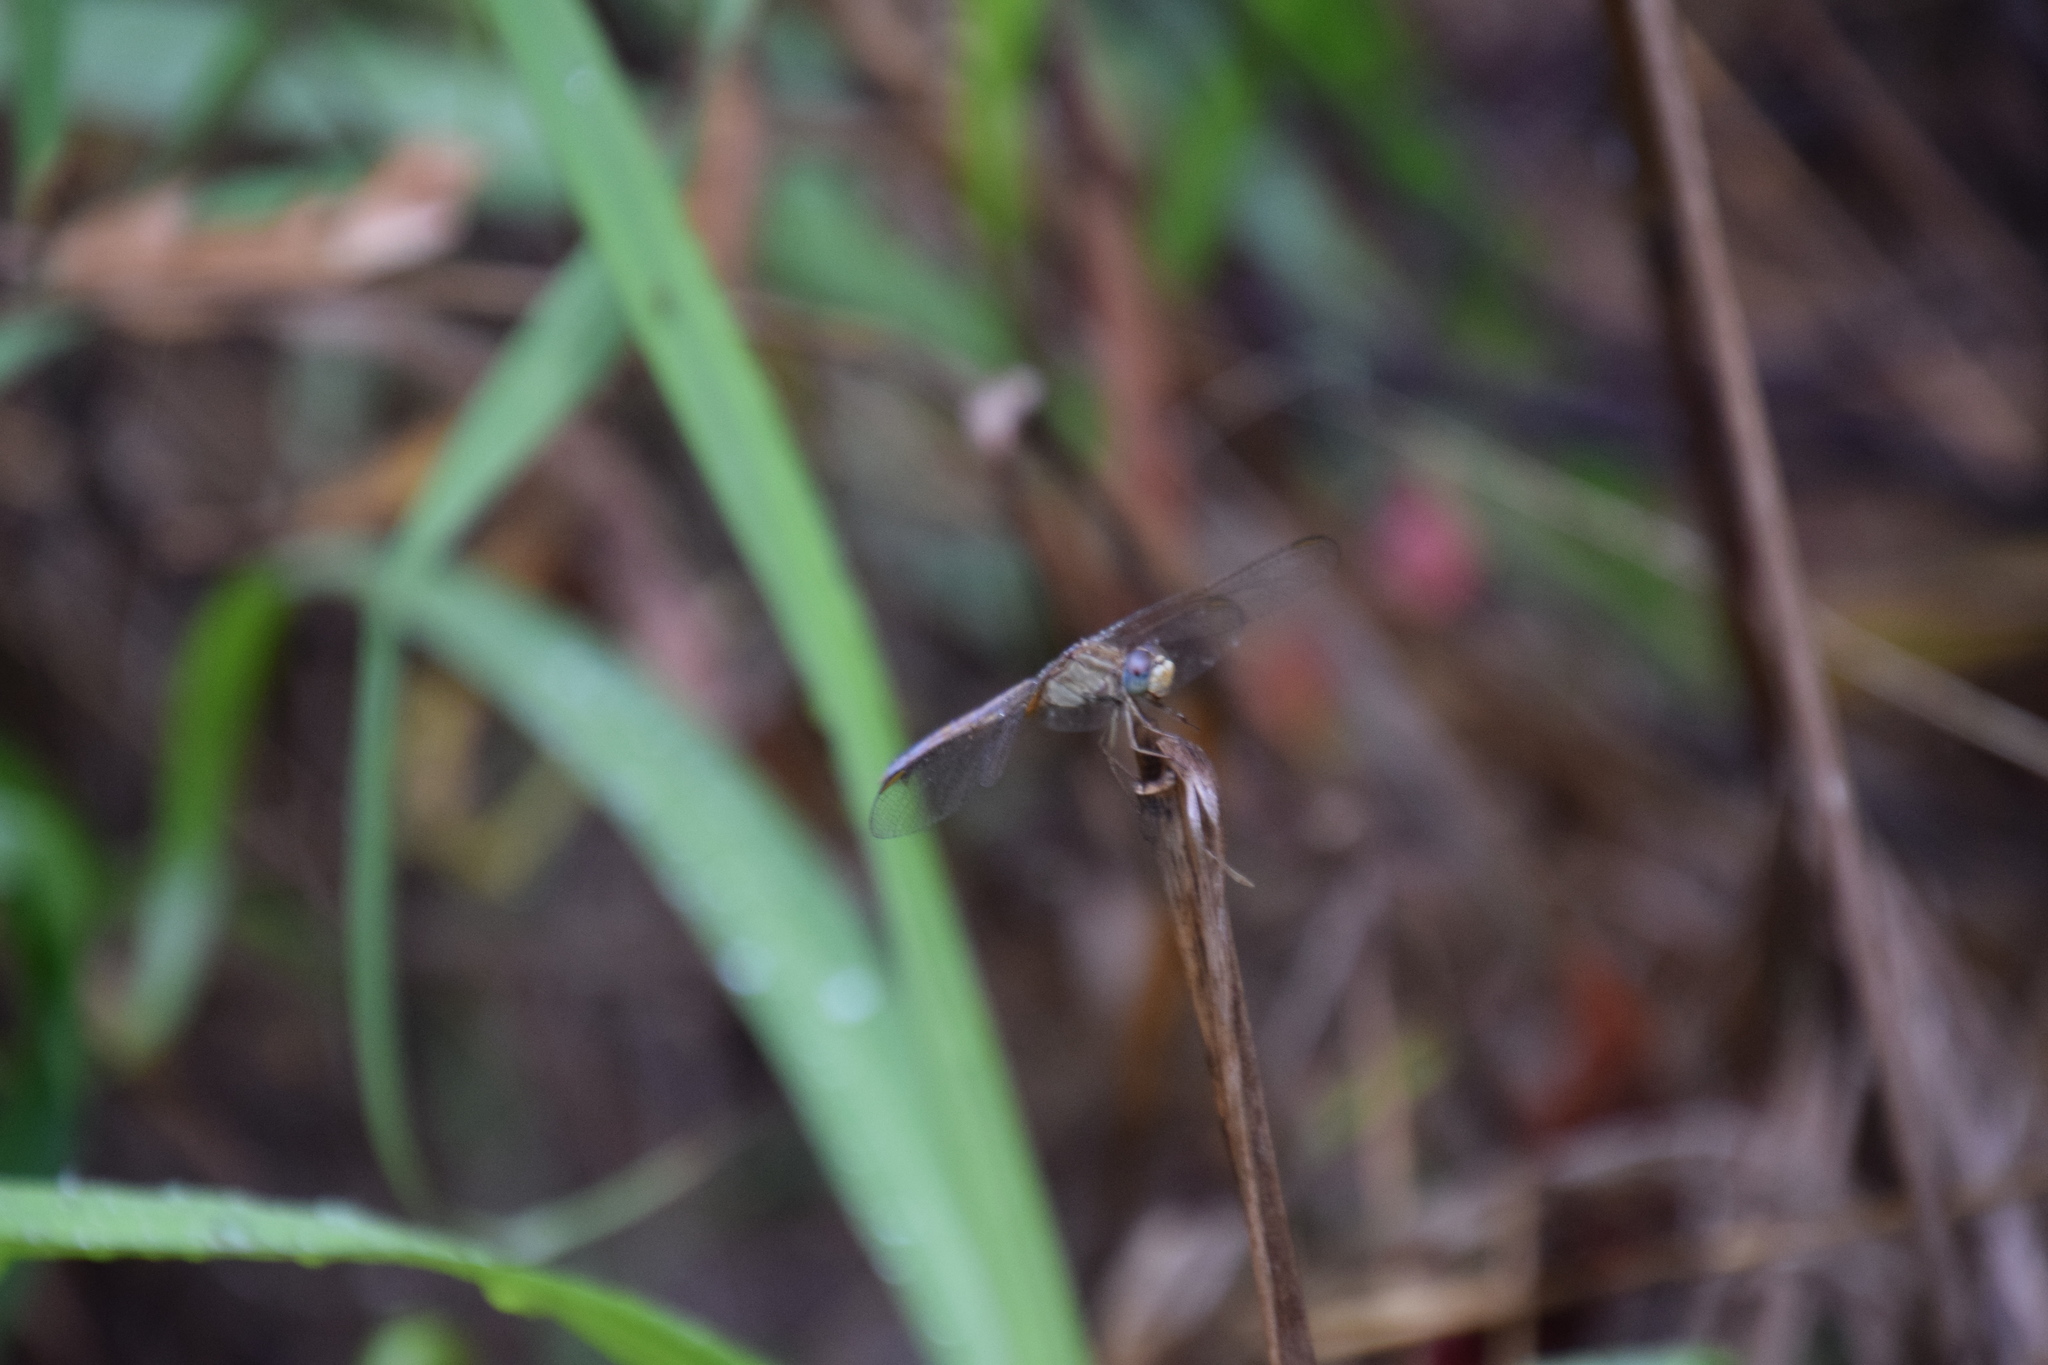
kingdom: Animalia
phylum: Arthropoda
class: Insecta
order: Odonata
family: Libellulidae
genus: Crocothemis
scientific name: Crocothemis nigrifrons
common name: Black-headed skimmer
